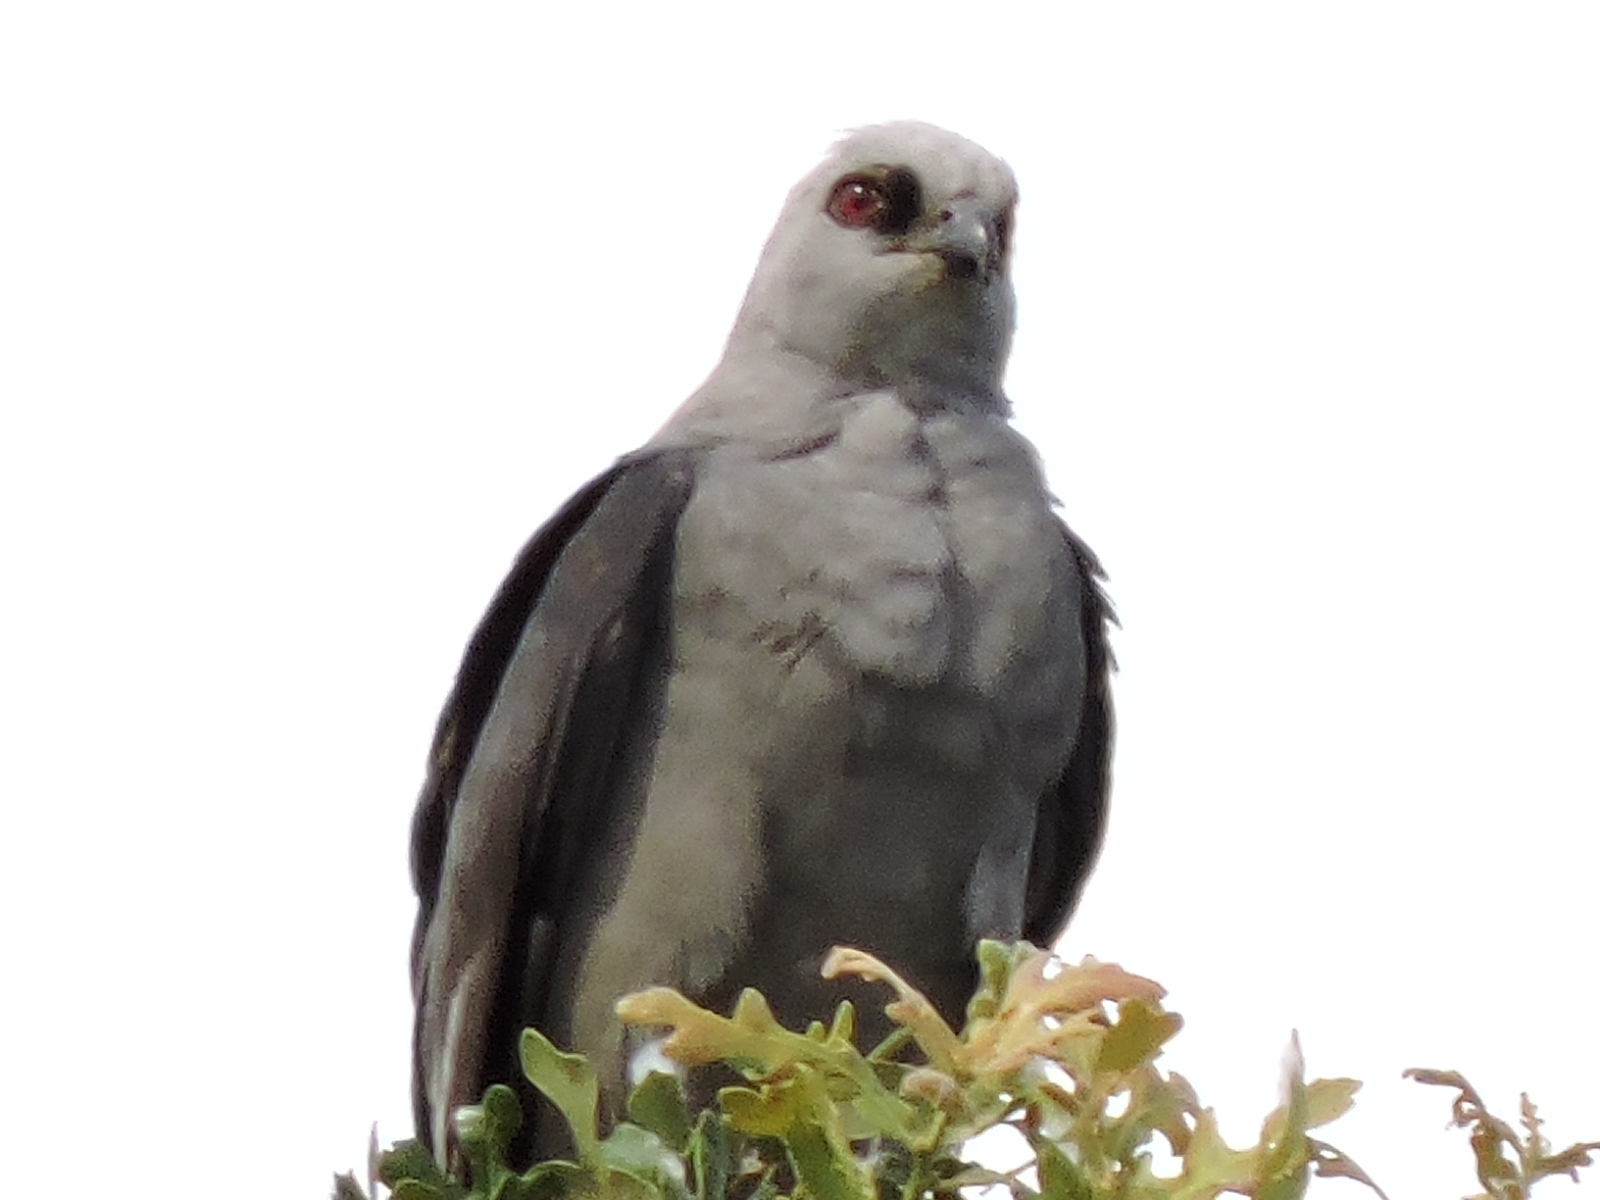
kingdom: Animalia
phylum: Chordata
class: Aves
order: Accipitriformes
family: Accipitridae
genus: Ictinia
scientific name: Ictinia mississippiensis
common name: Mississippi kite
